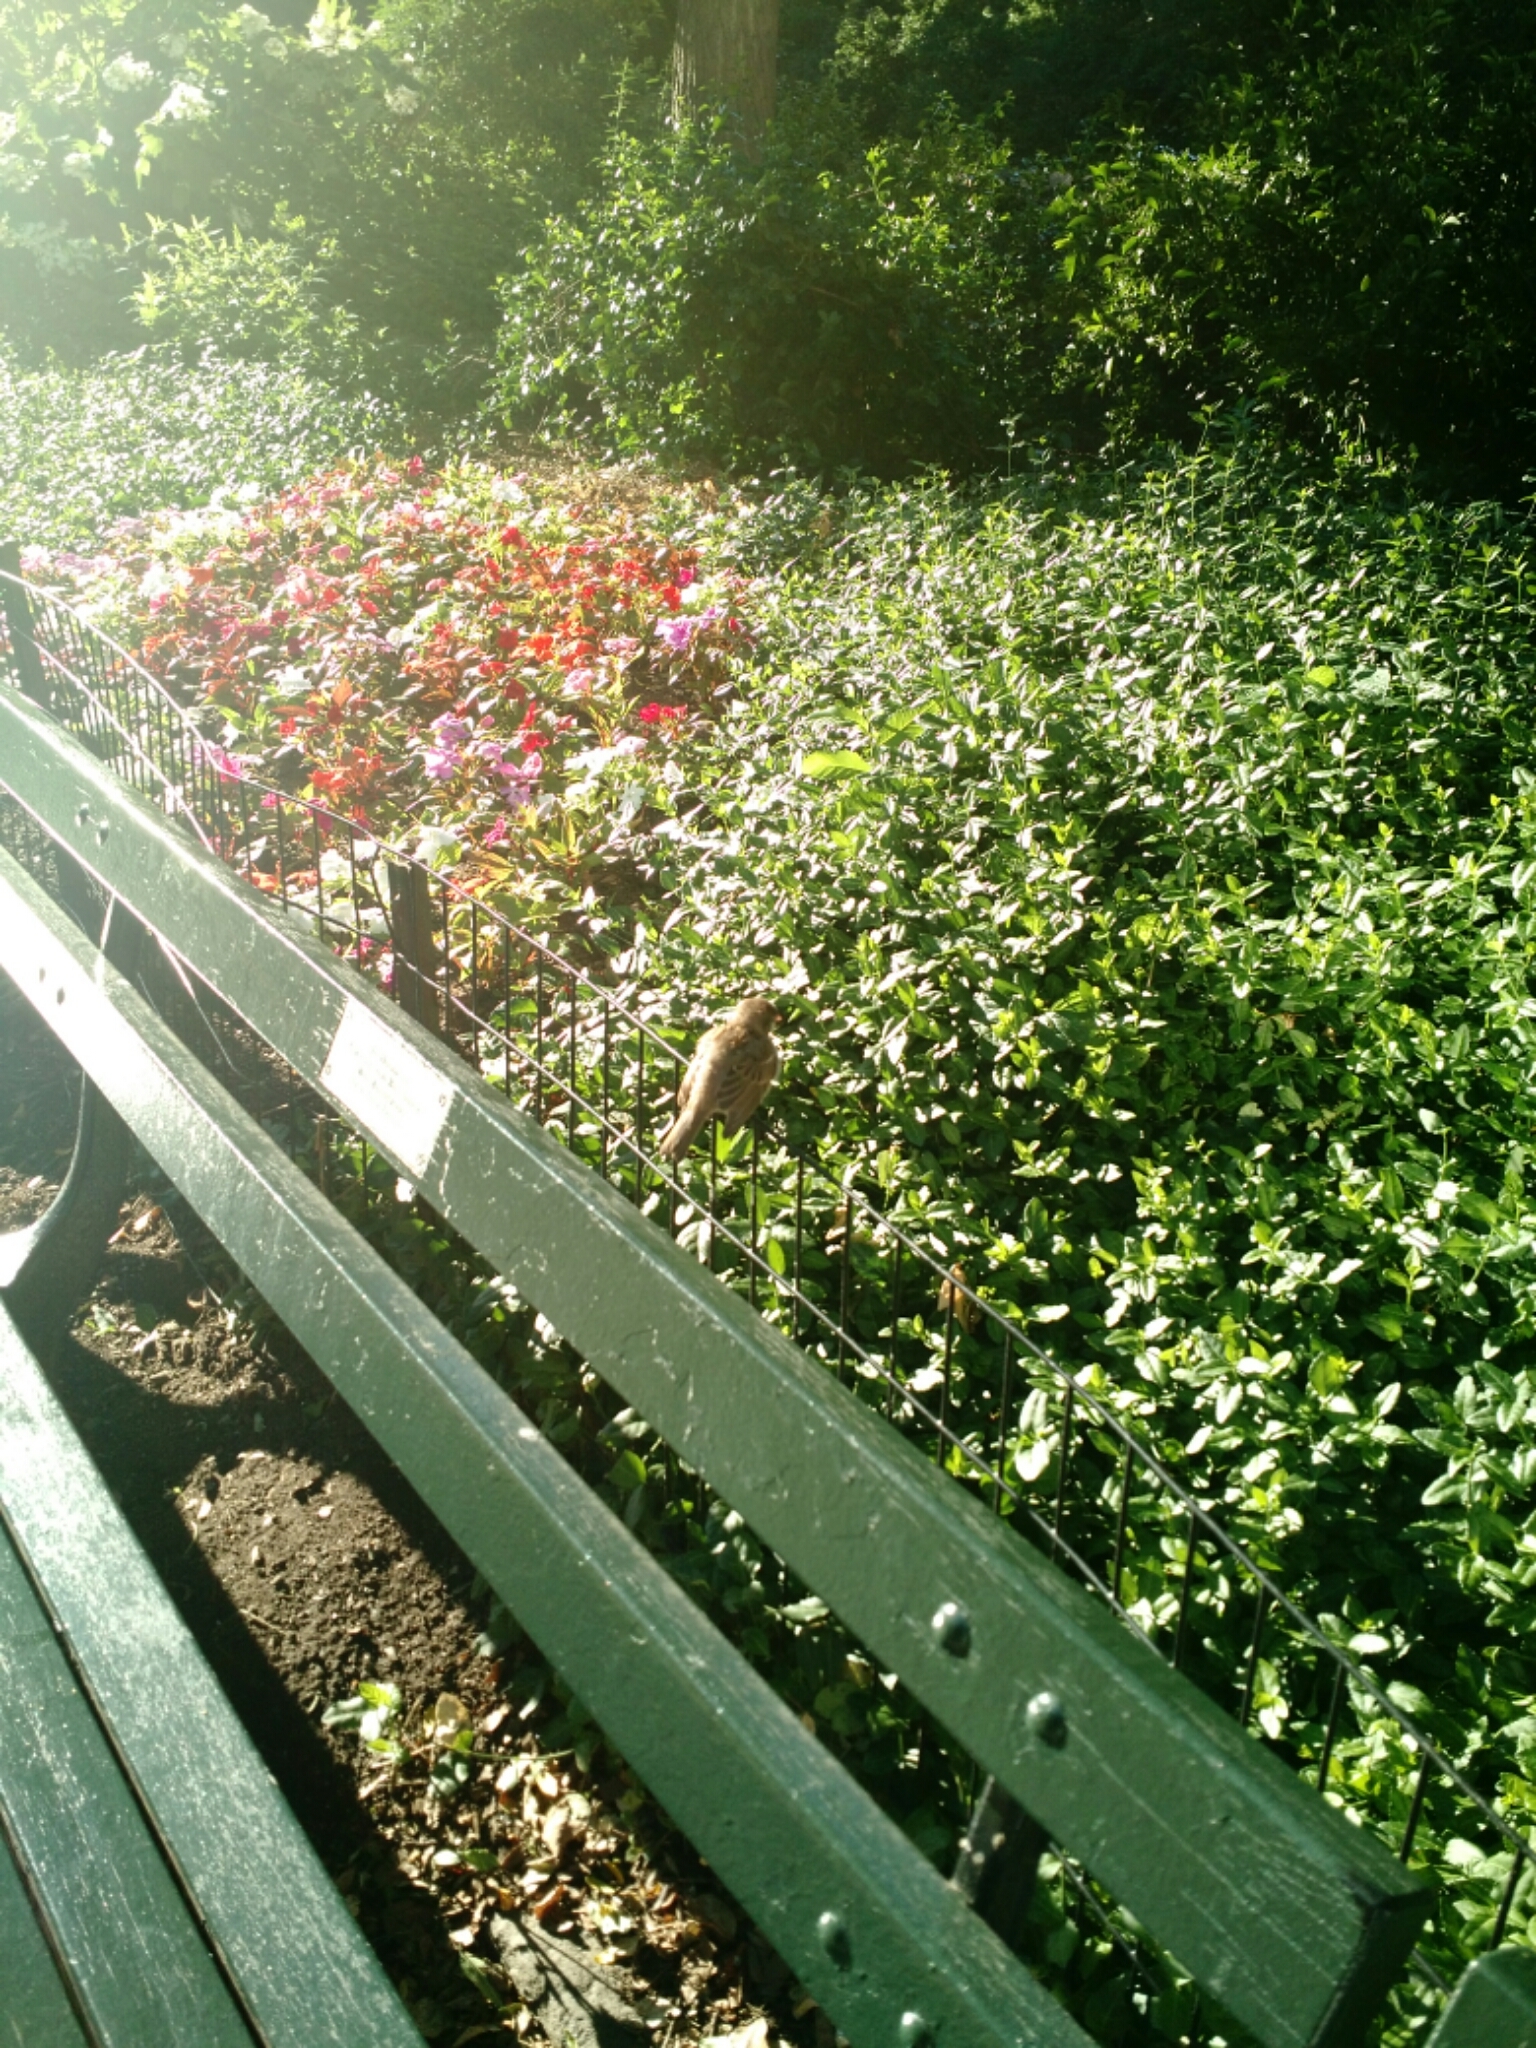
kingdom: Animalia
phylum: Chordata
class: Aves
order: Passeriformes
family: Passeridae
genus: Passer
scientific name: Passer domesticus
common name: House sparrow
